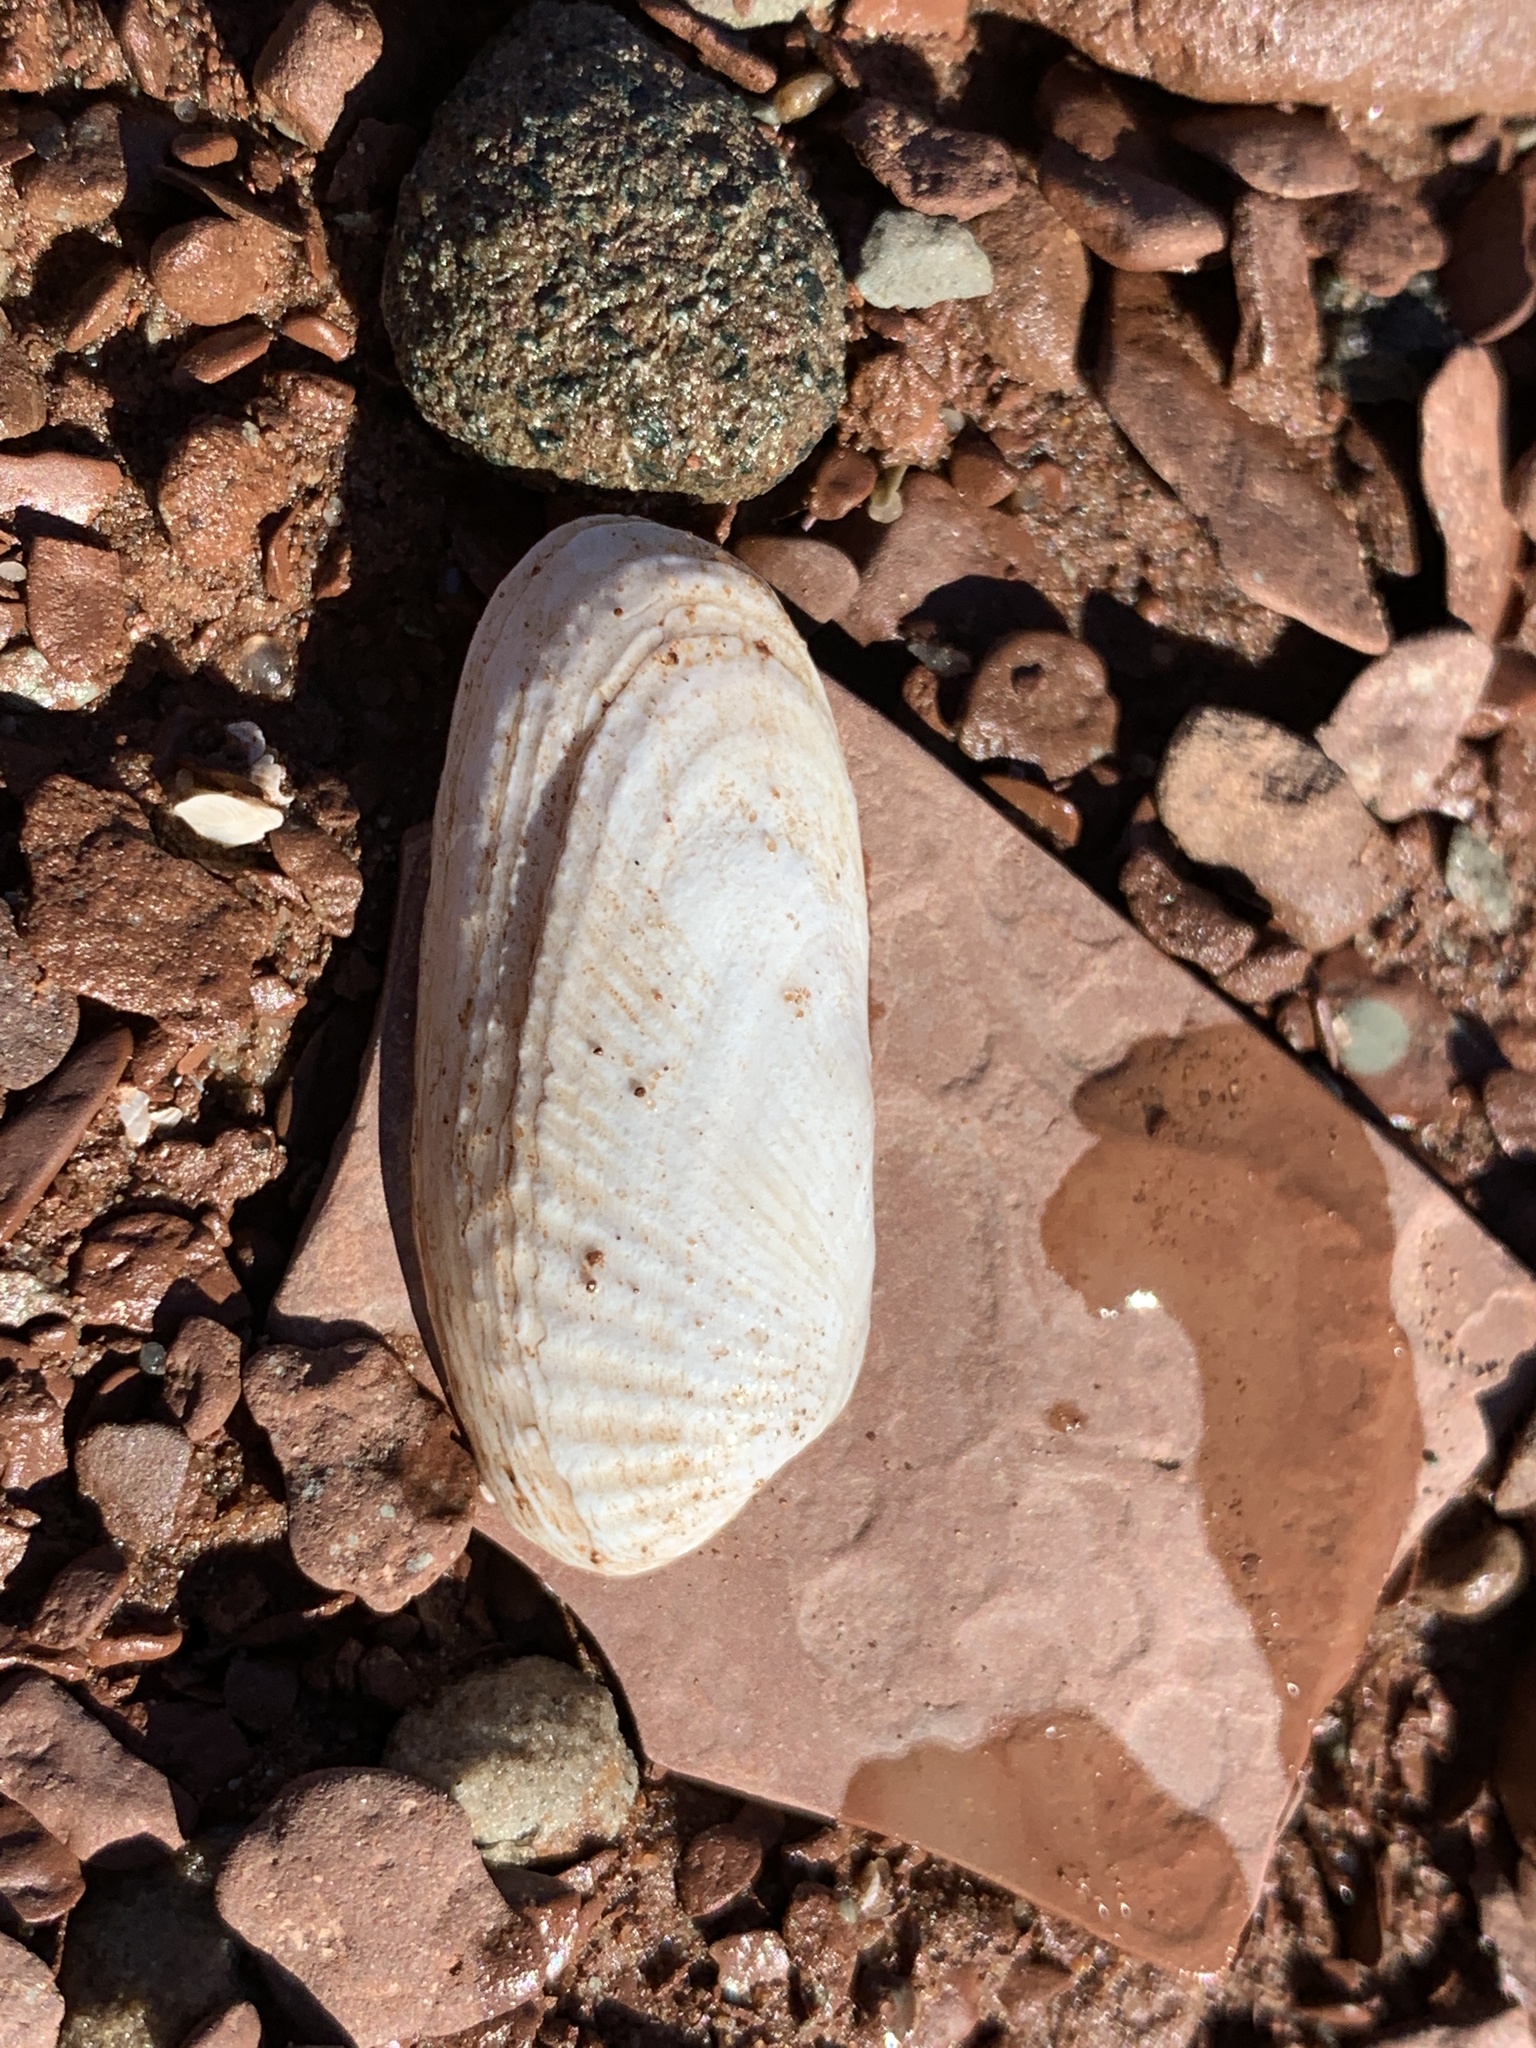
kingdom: Animalia
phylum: Mollusca
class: Bivalvia
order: Venerida
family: Veneridae
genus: Petricolaria
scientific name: Petricolaria pholadiformis
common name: American piddock
